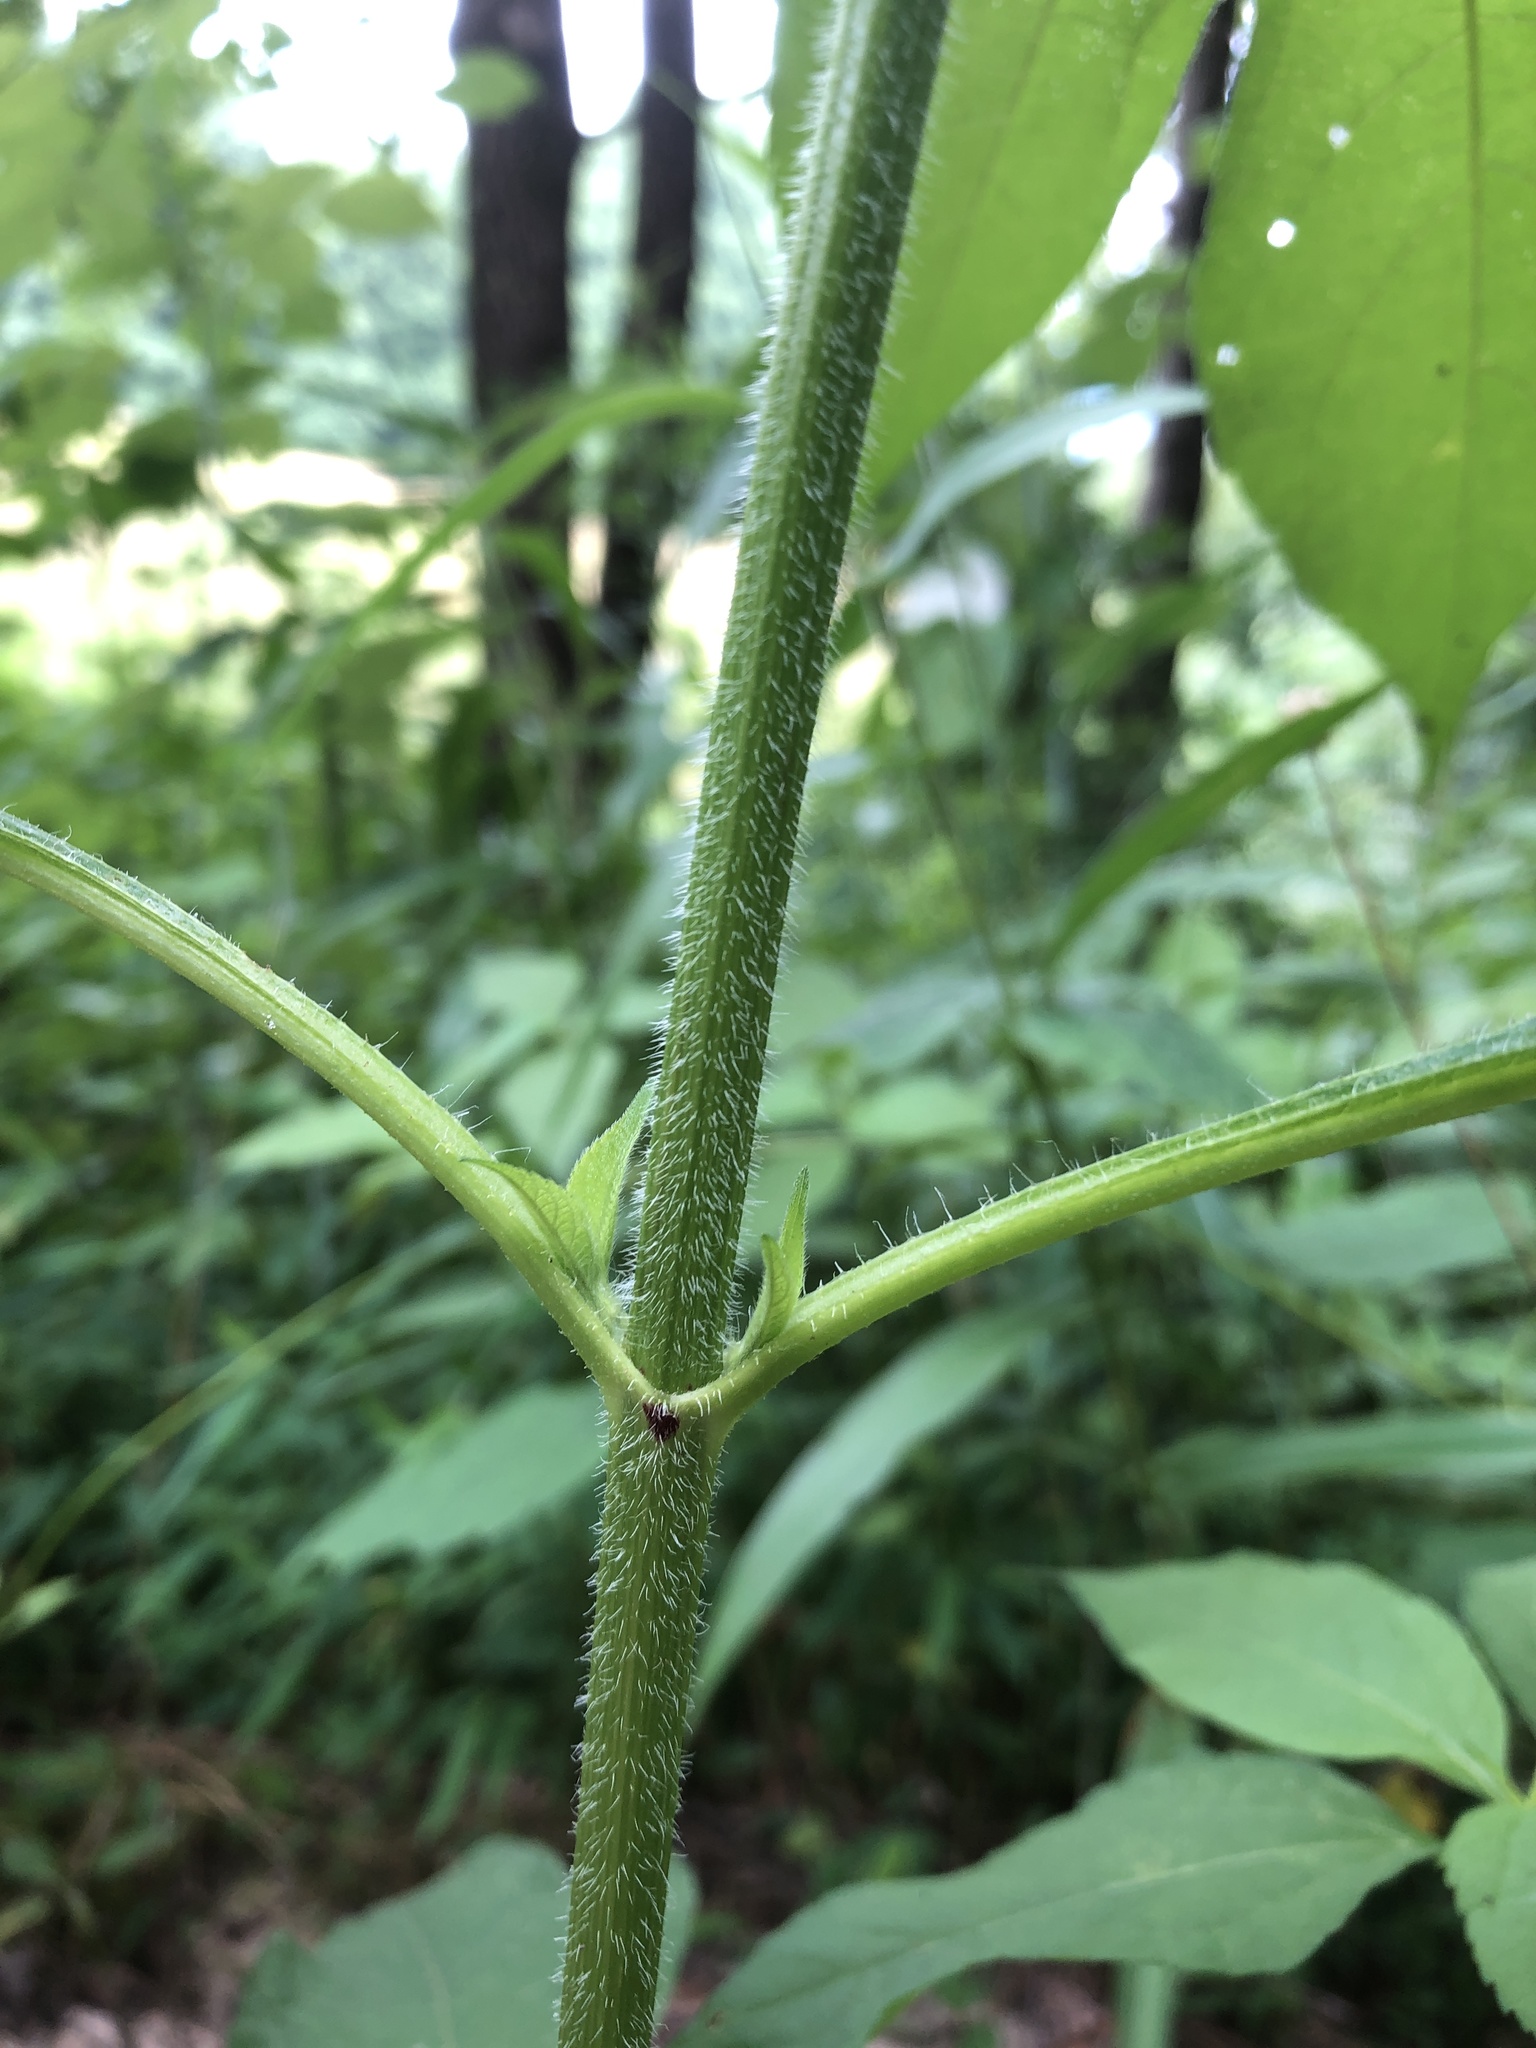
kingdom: Plantae
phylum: Tracheophyta
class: Magnoliopsida
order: Asterales
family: Asteraceae
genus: Ambrosia
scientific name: Ambrosia trifida
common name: Giant ragweed
